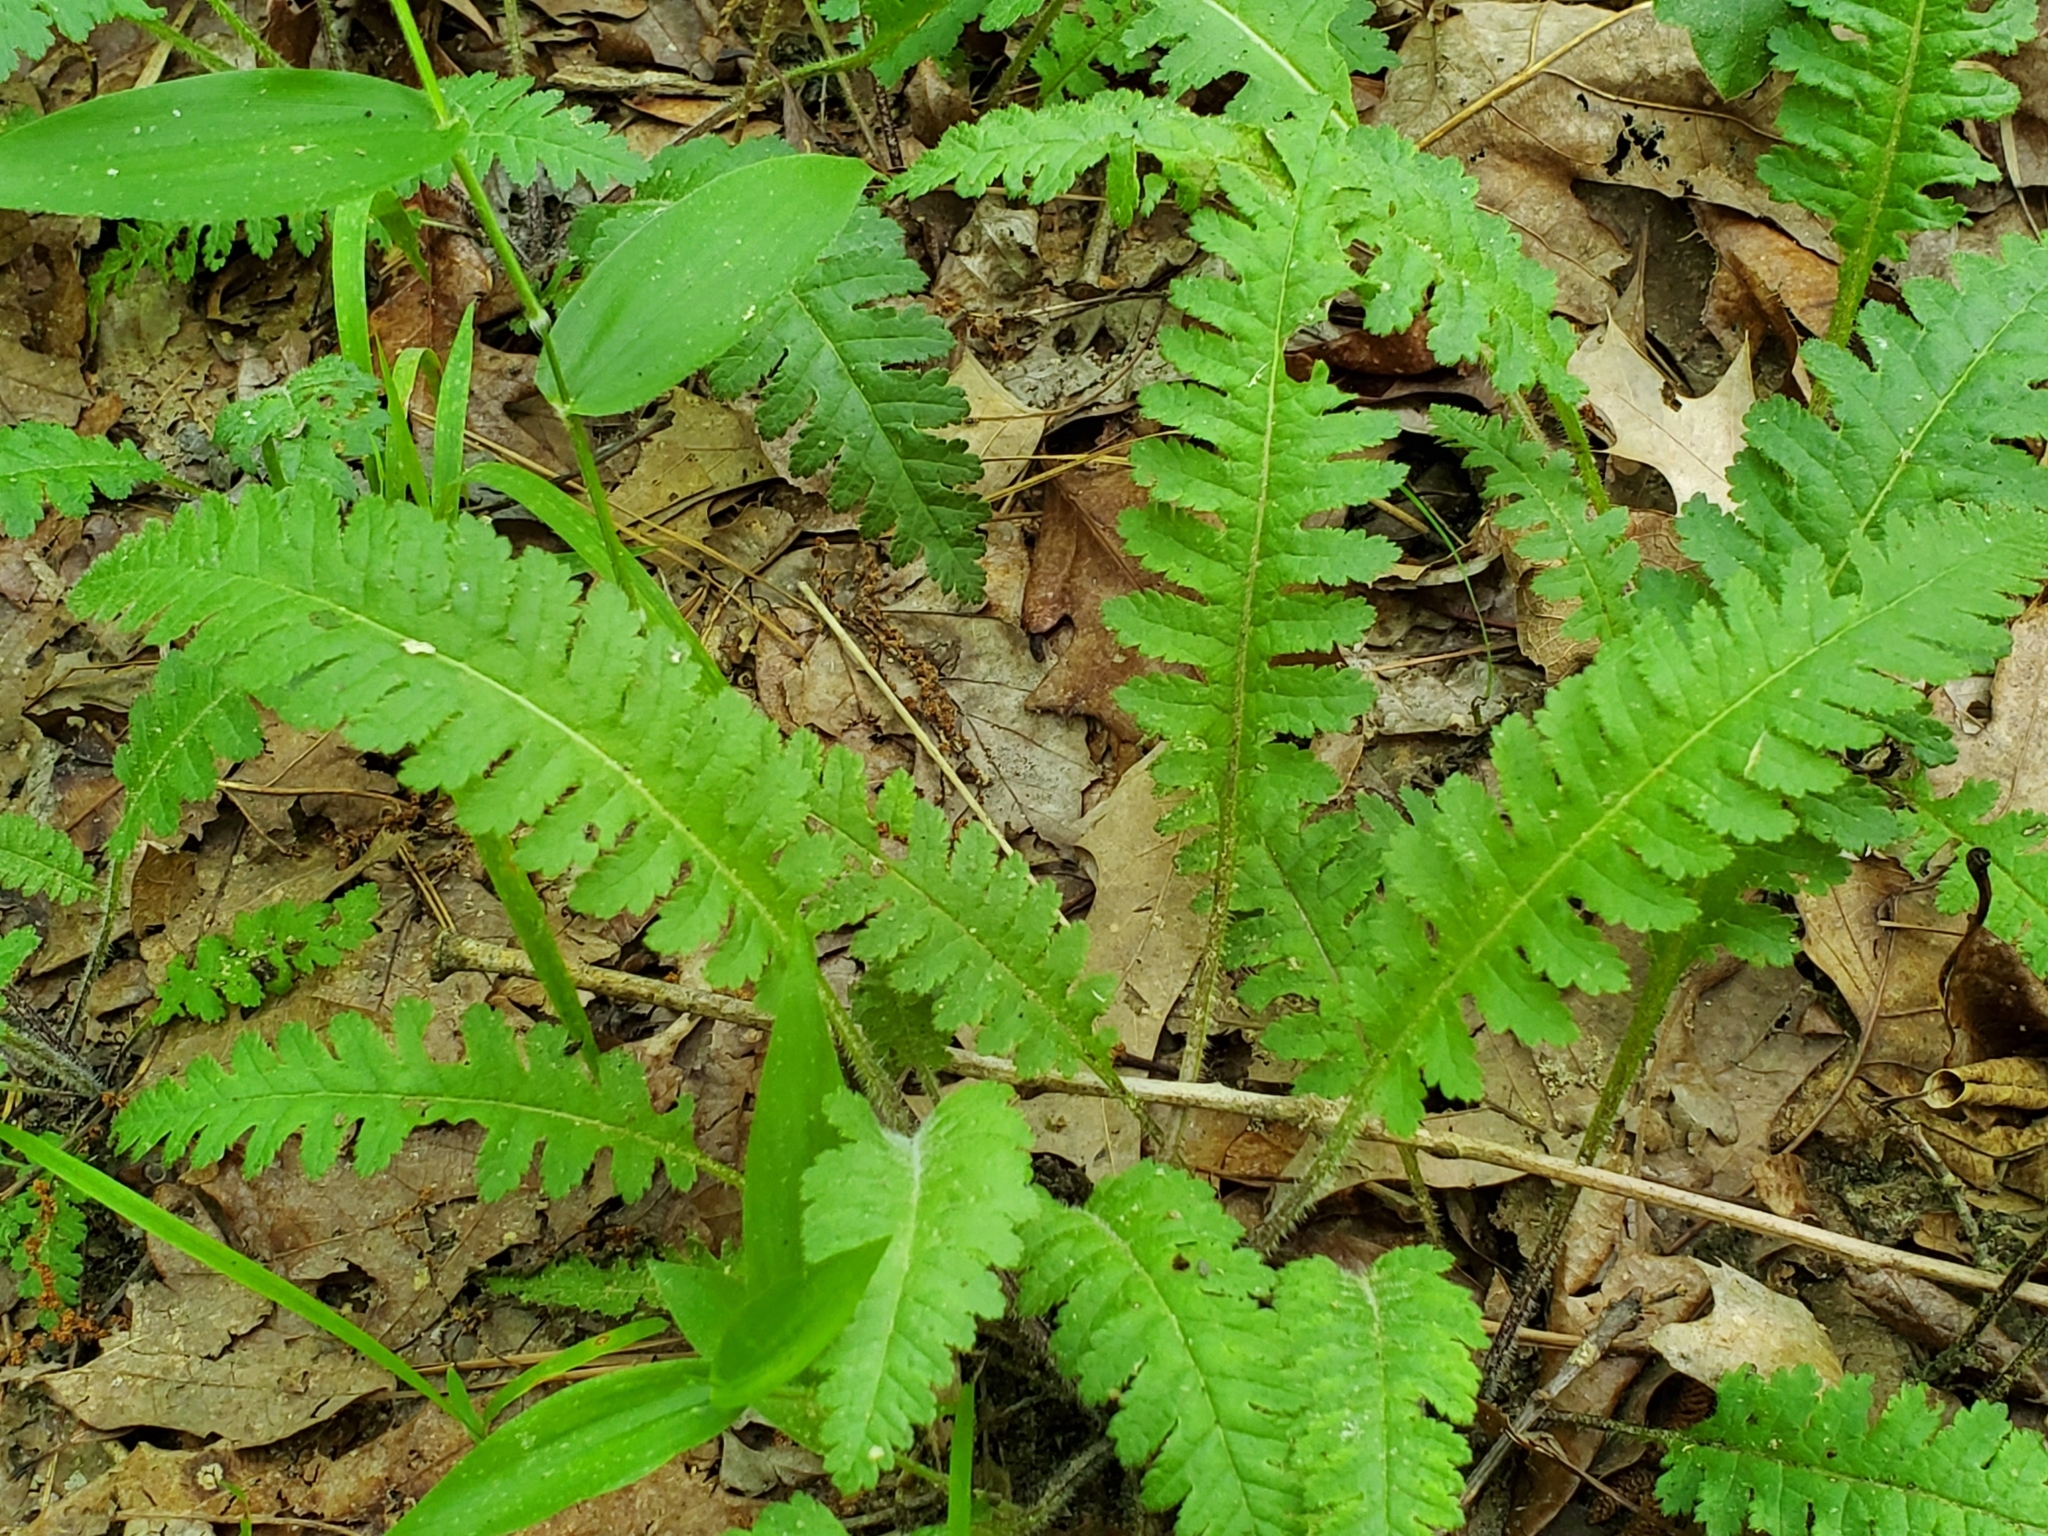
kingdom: Plantae
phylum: Tracheophyta
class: Magnoliopsida
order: Lamiales
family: Orobanchaceae
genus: Pedicularis
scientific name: Pedicularis canadensis
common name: Early lousewort
